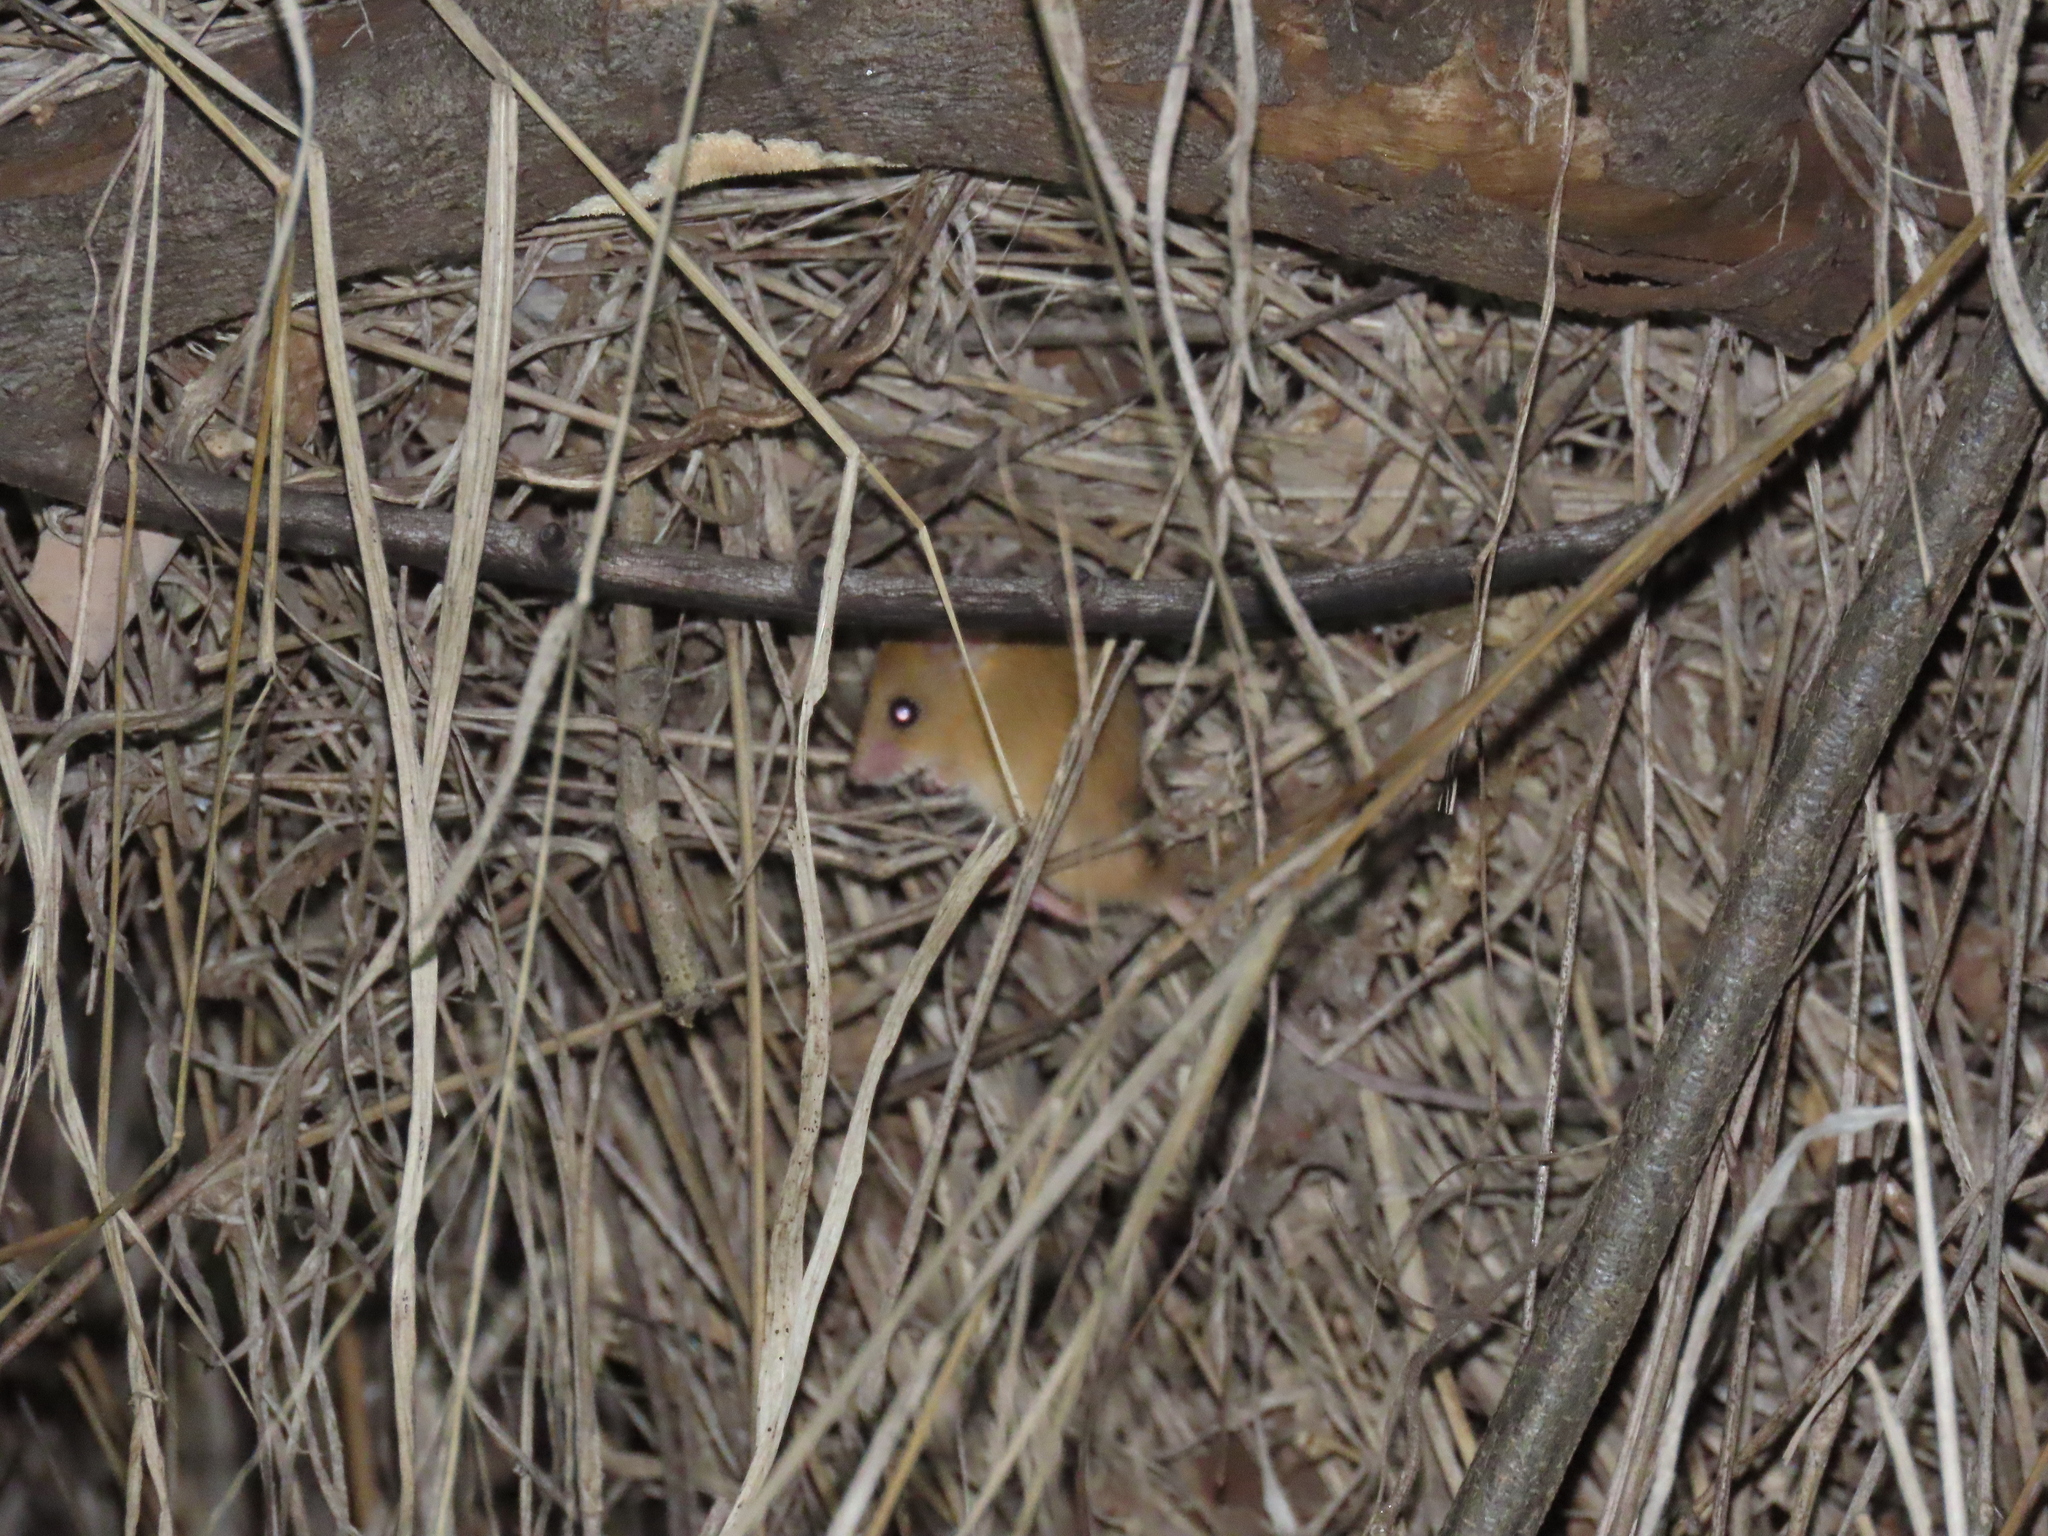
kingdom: Animalia
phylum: Chordata
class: Mammalia
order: Rodentia
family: Nesomyidae
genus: Dendromus
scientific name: Dendromus mystacalis
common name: Chestnut african climbing mouse
